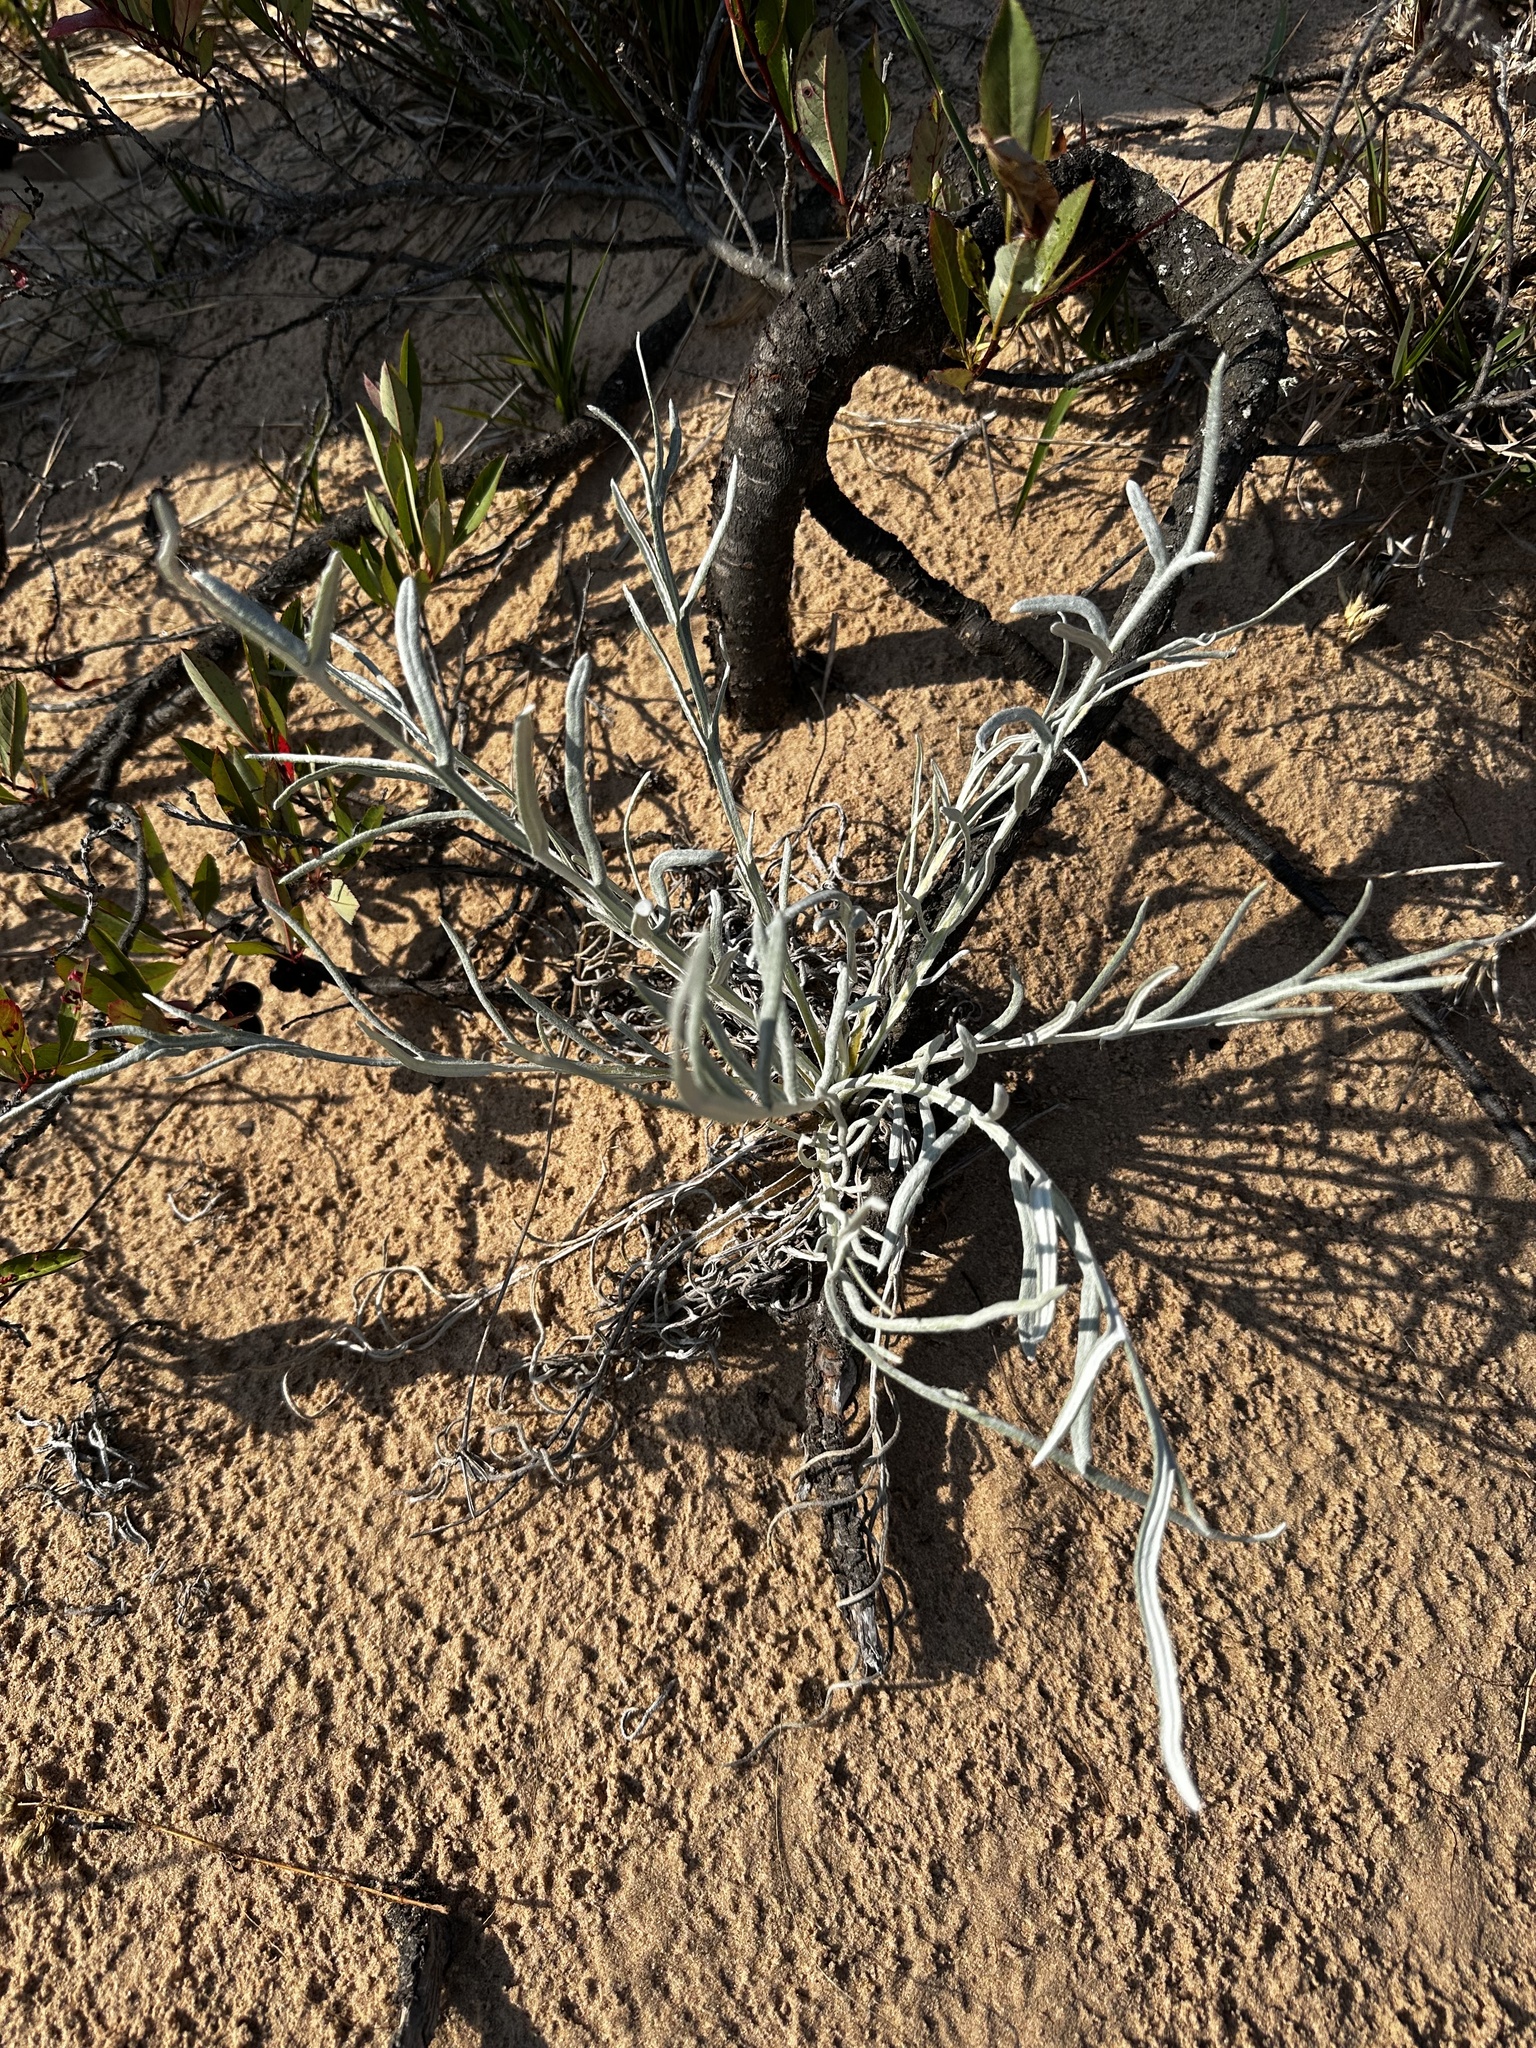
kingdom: Plantae
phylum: Tracheophyta
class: Magnoliopsida
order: Asterales
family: Asteraceae
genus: Cirsium
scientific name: Cirsium pitcheri
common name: Dune thistle
